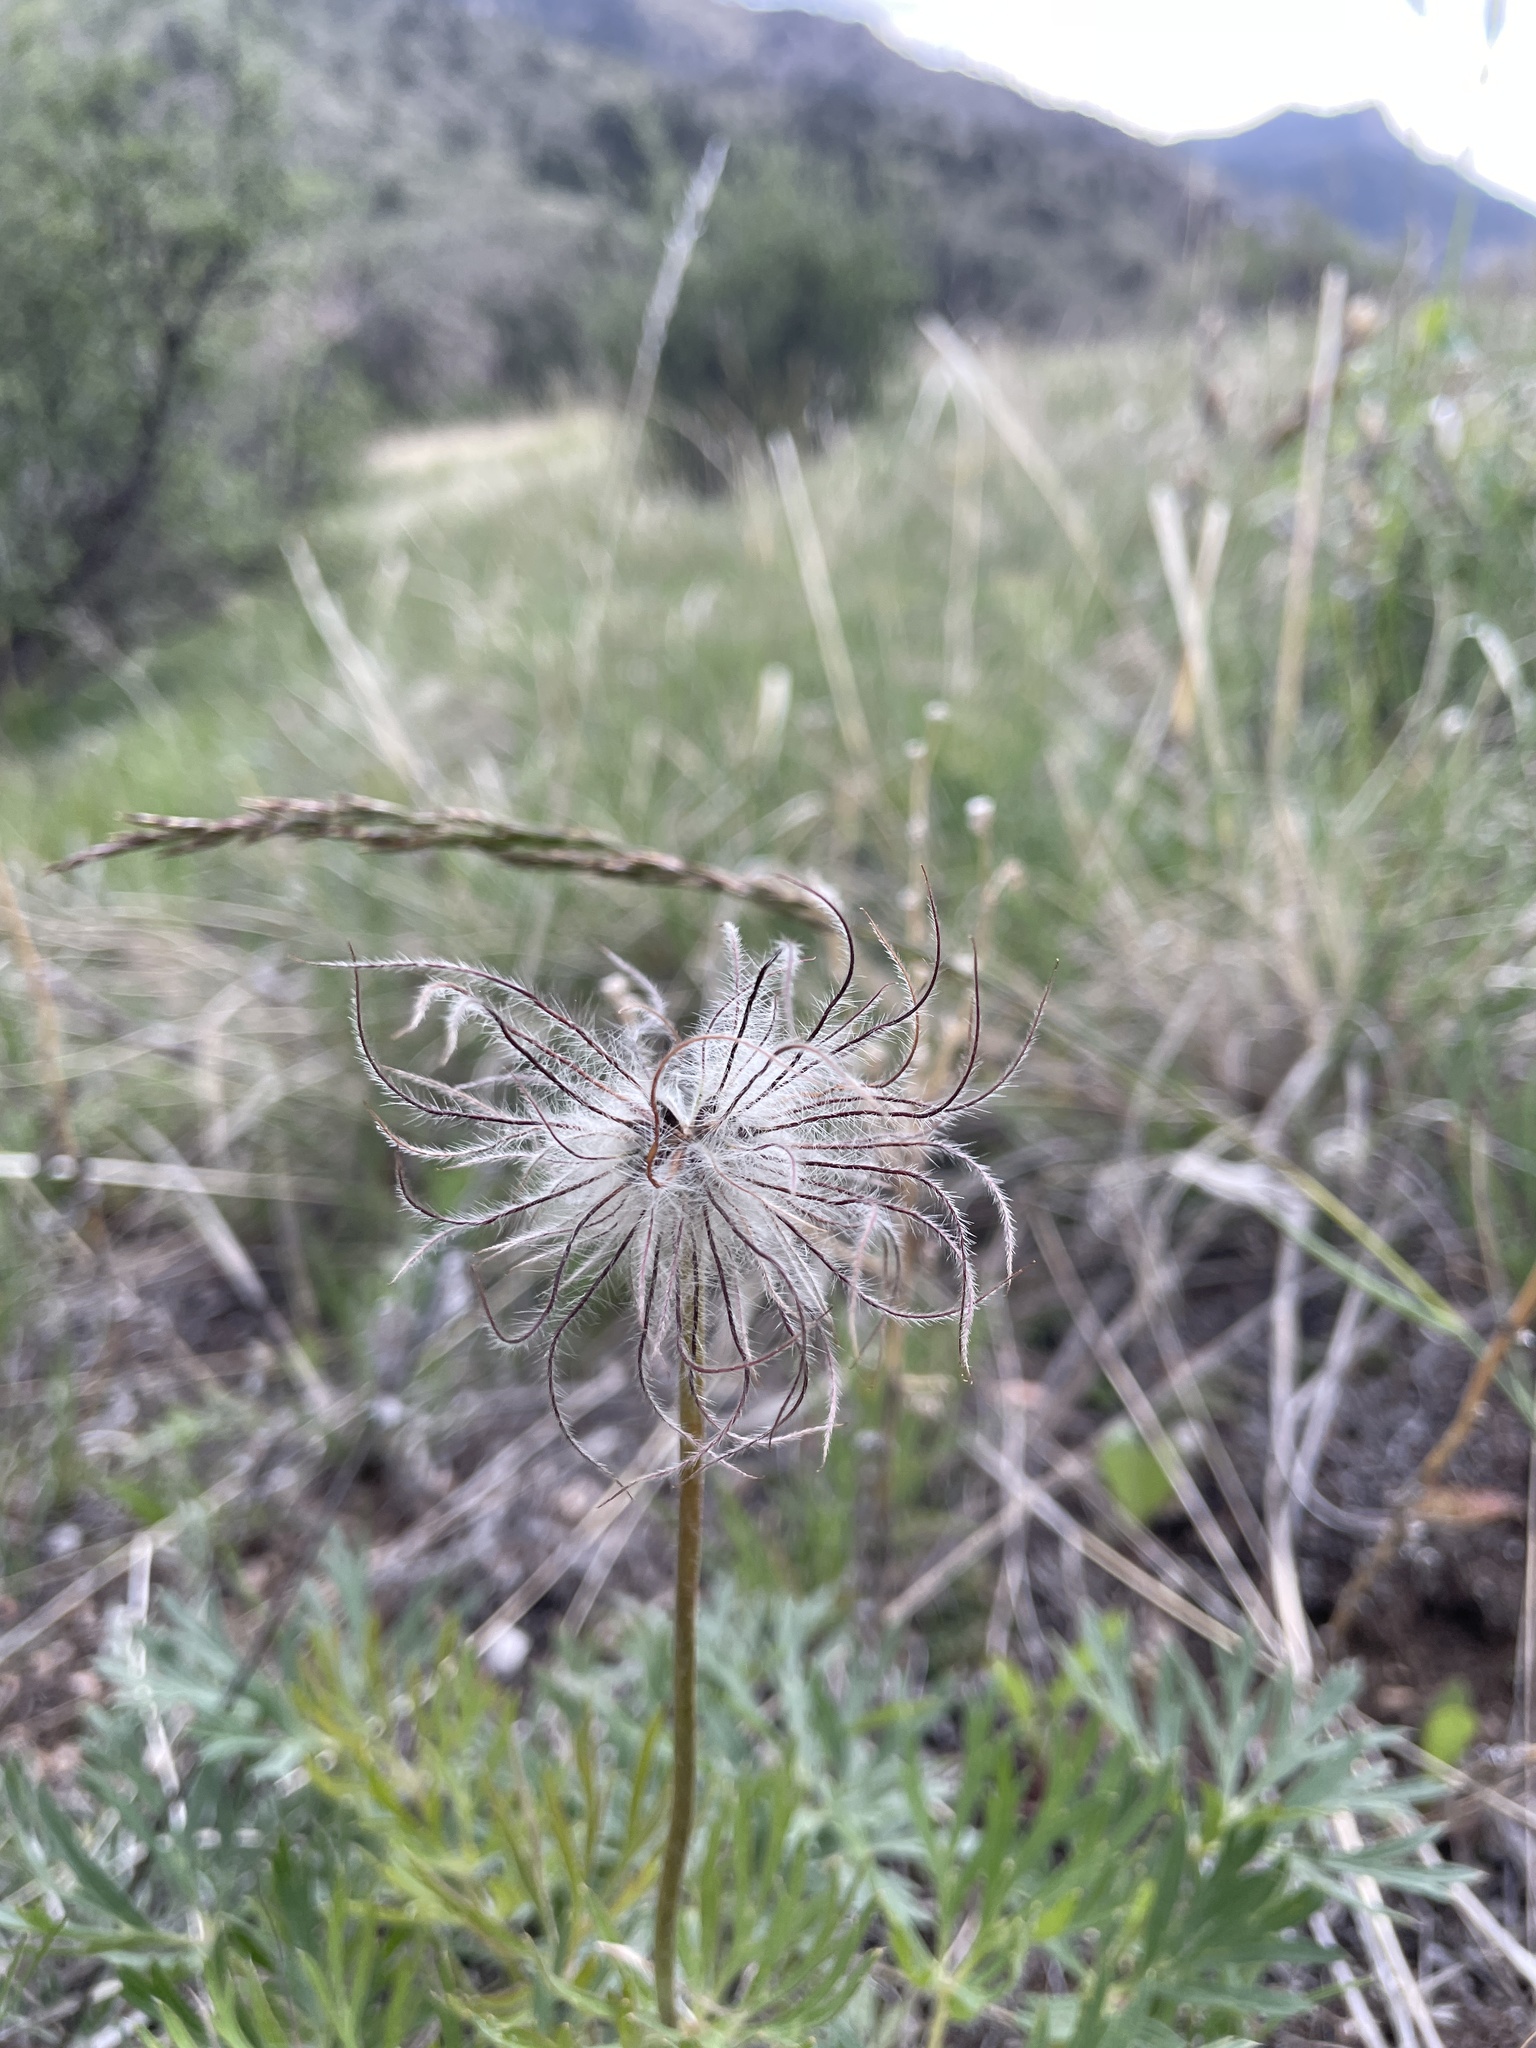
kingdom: Plantae
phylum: Tracheophyta
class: Magnoliopsida
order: Ranunculales
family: Ranunculaceae
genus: Pulsatilla
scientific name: Pulsatilla nuttalliana
